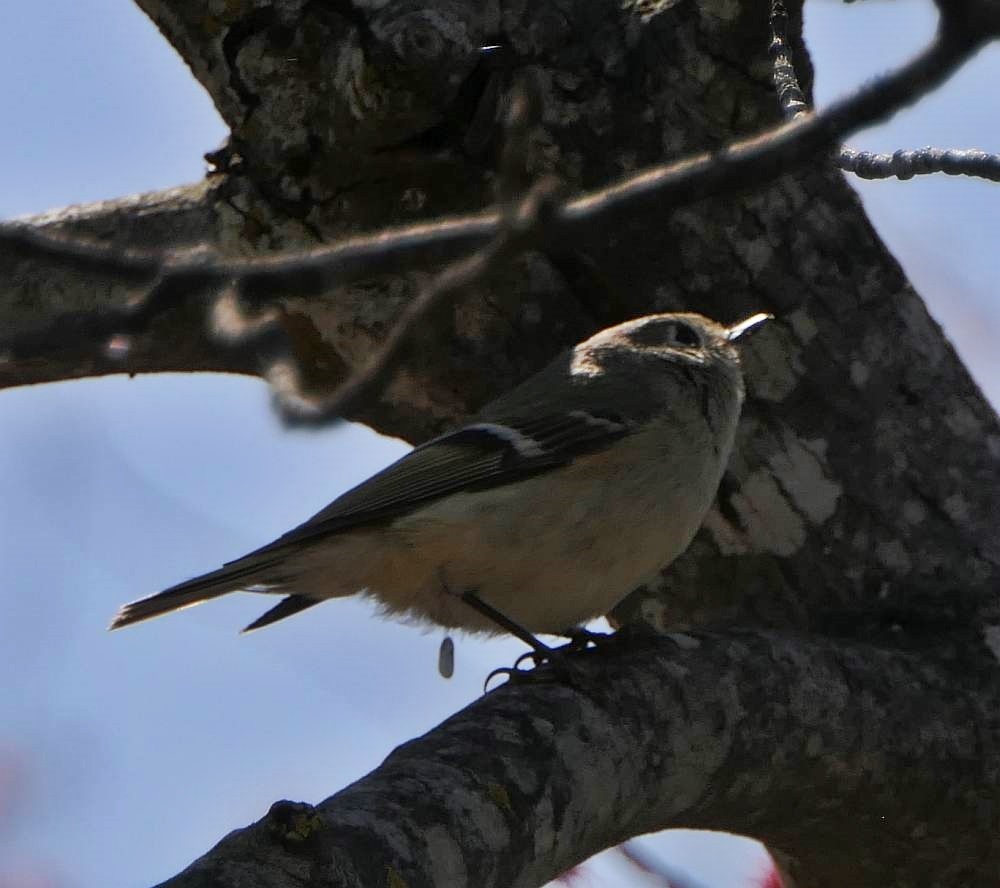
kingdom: Animalia
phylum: Chordata
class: Aves
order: Passeriformes
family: Regulidae
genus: Regulus
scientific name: Regulus calendula
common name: Ruby-crowned kinglet
